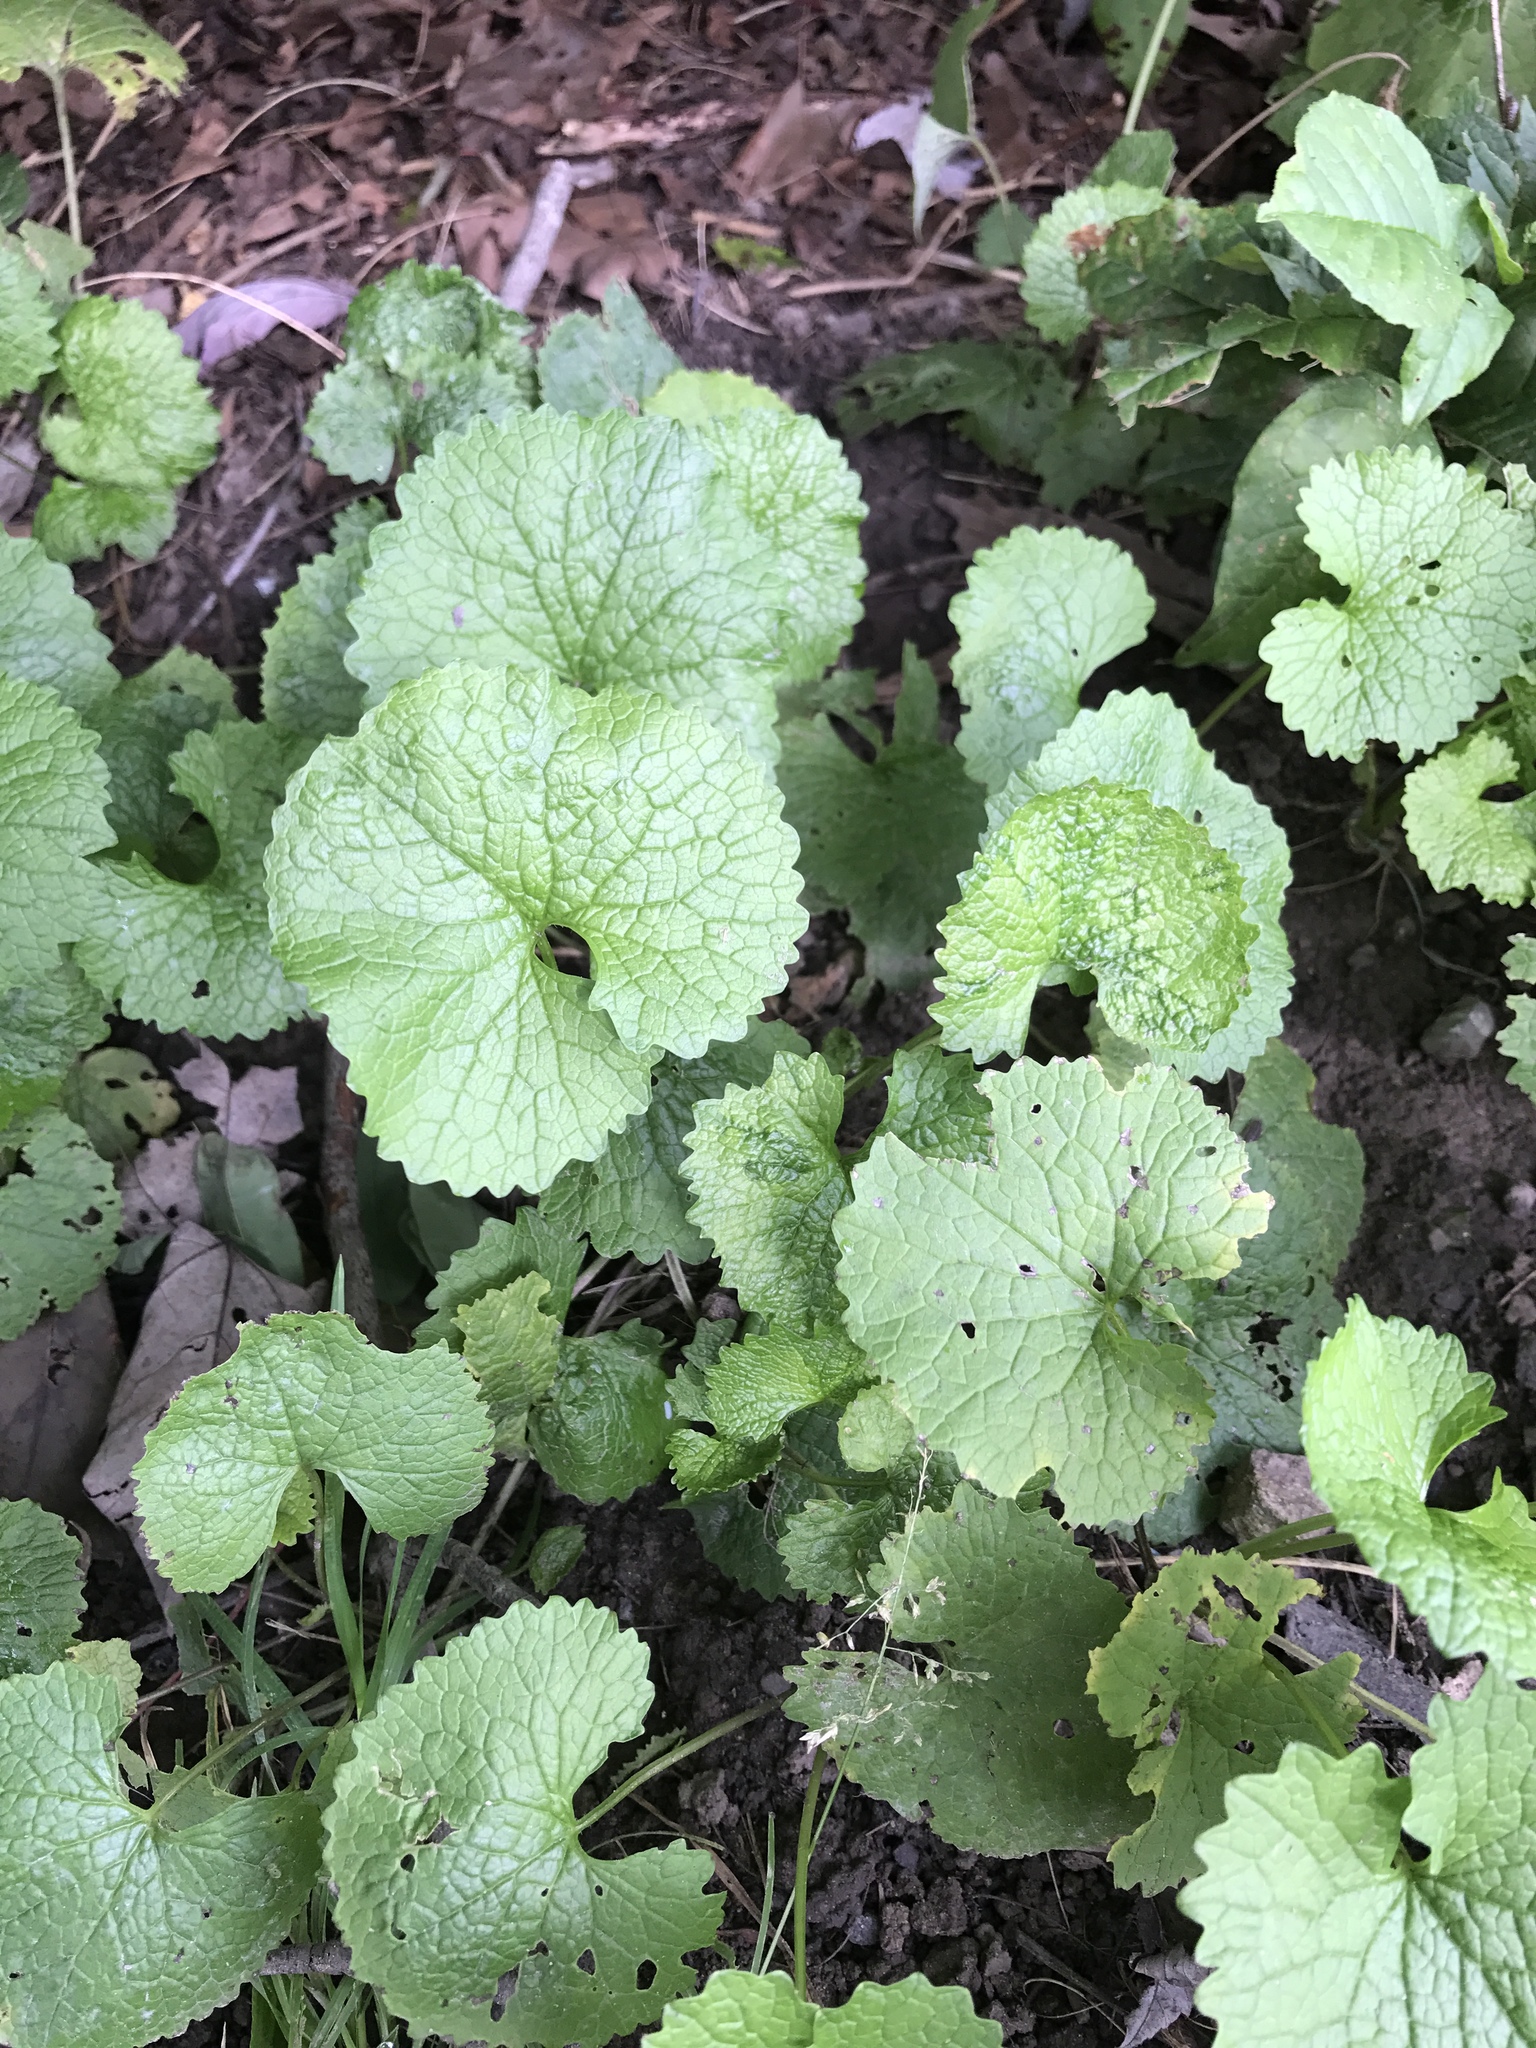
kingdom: Plantae
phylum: Tracheophyta
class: Magnoliopsida
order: Brassicales
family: Brassicaceae
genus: Alliaria
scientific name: Alliaria petiolata
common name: Garlic mustard
